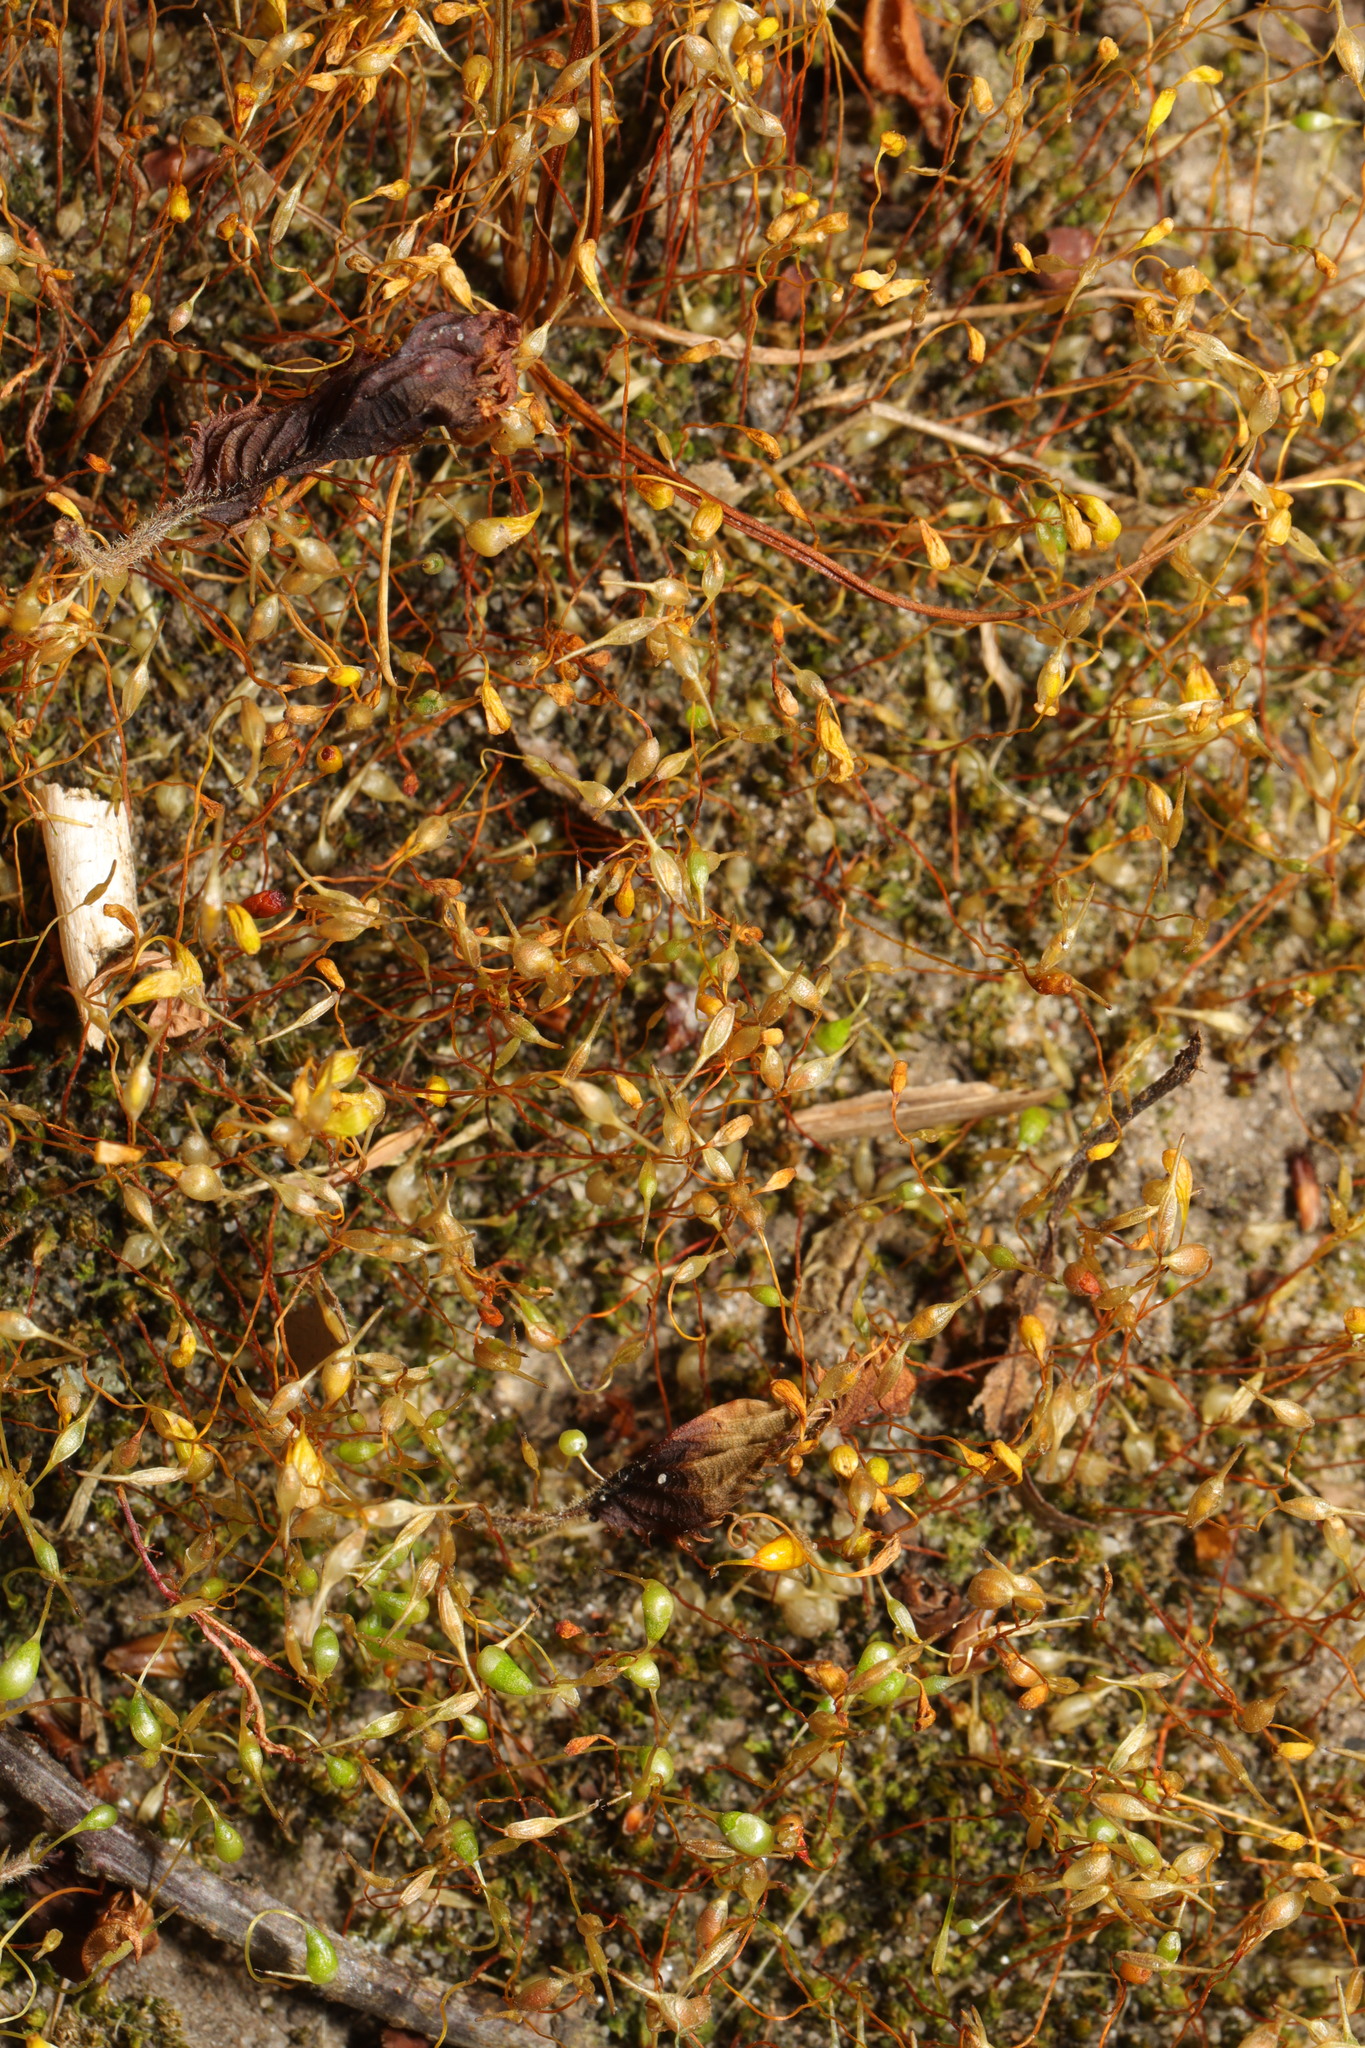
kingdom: Plantae
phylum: Bryophyta
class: Bryopsida
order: Funariales
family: Funariaceae
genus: Funaria
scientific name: Funaria hygrometrica
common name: Common cord moss
